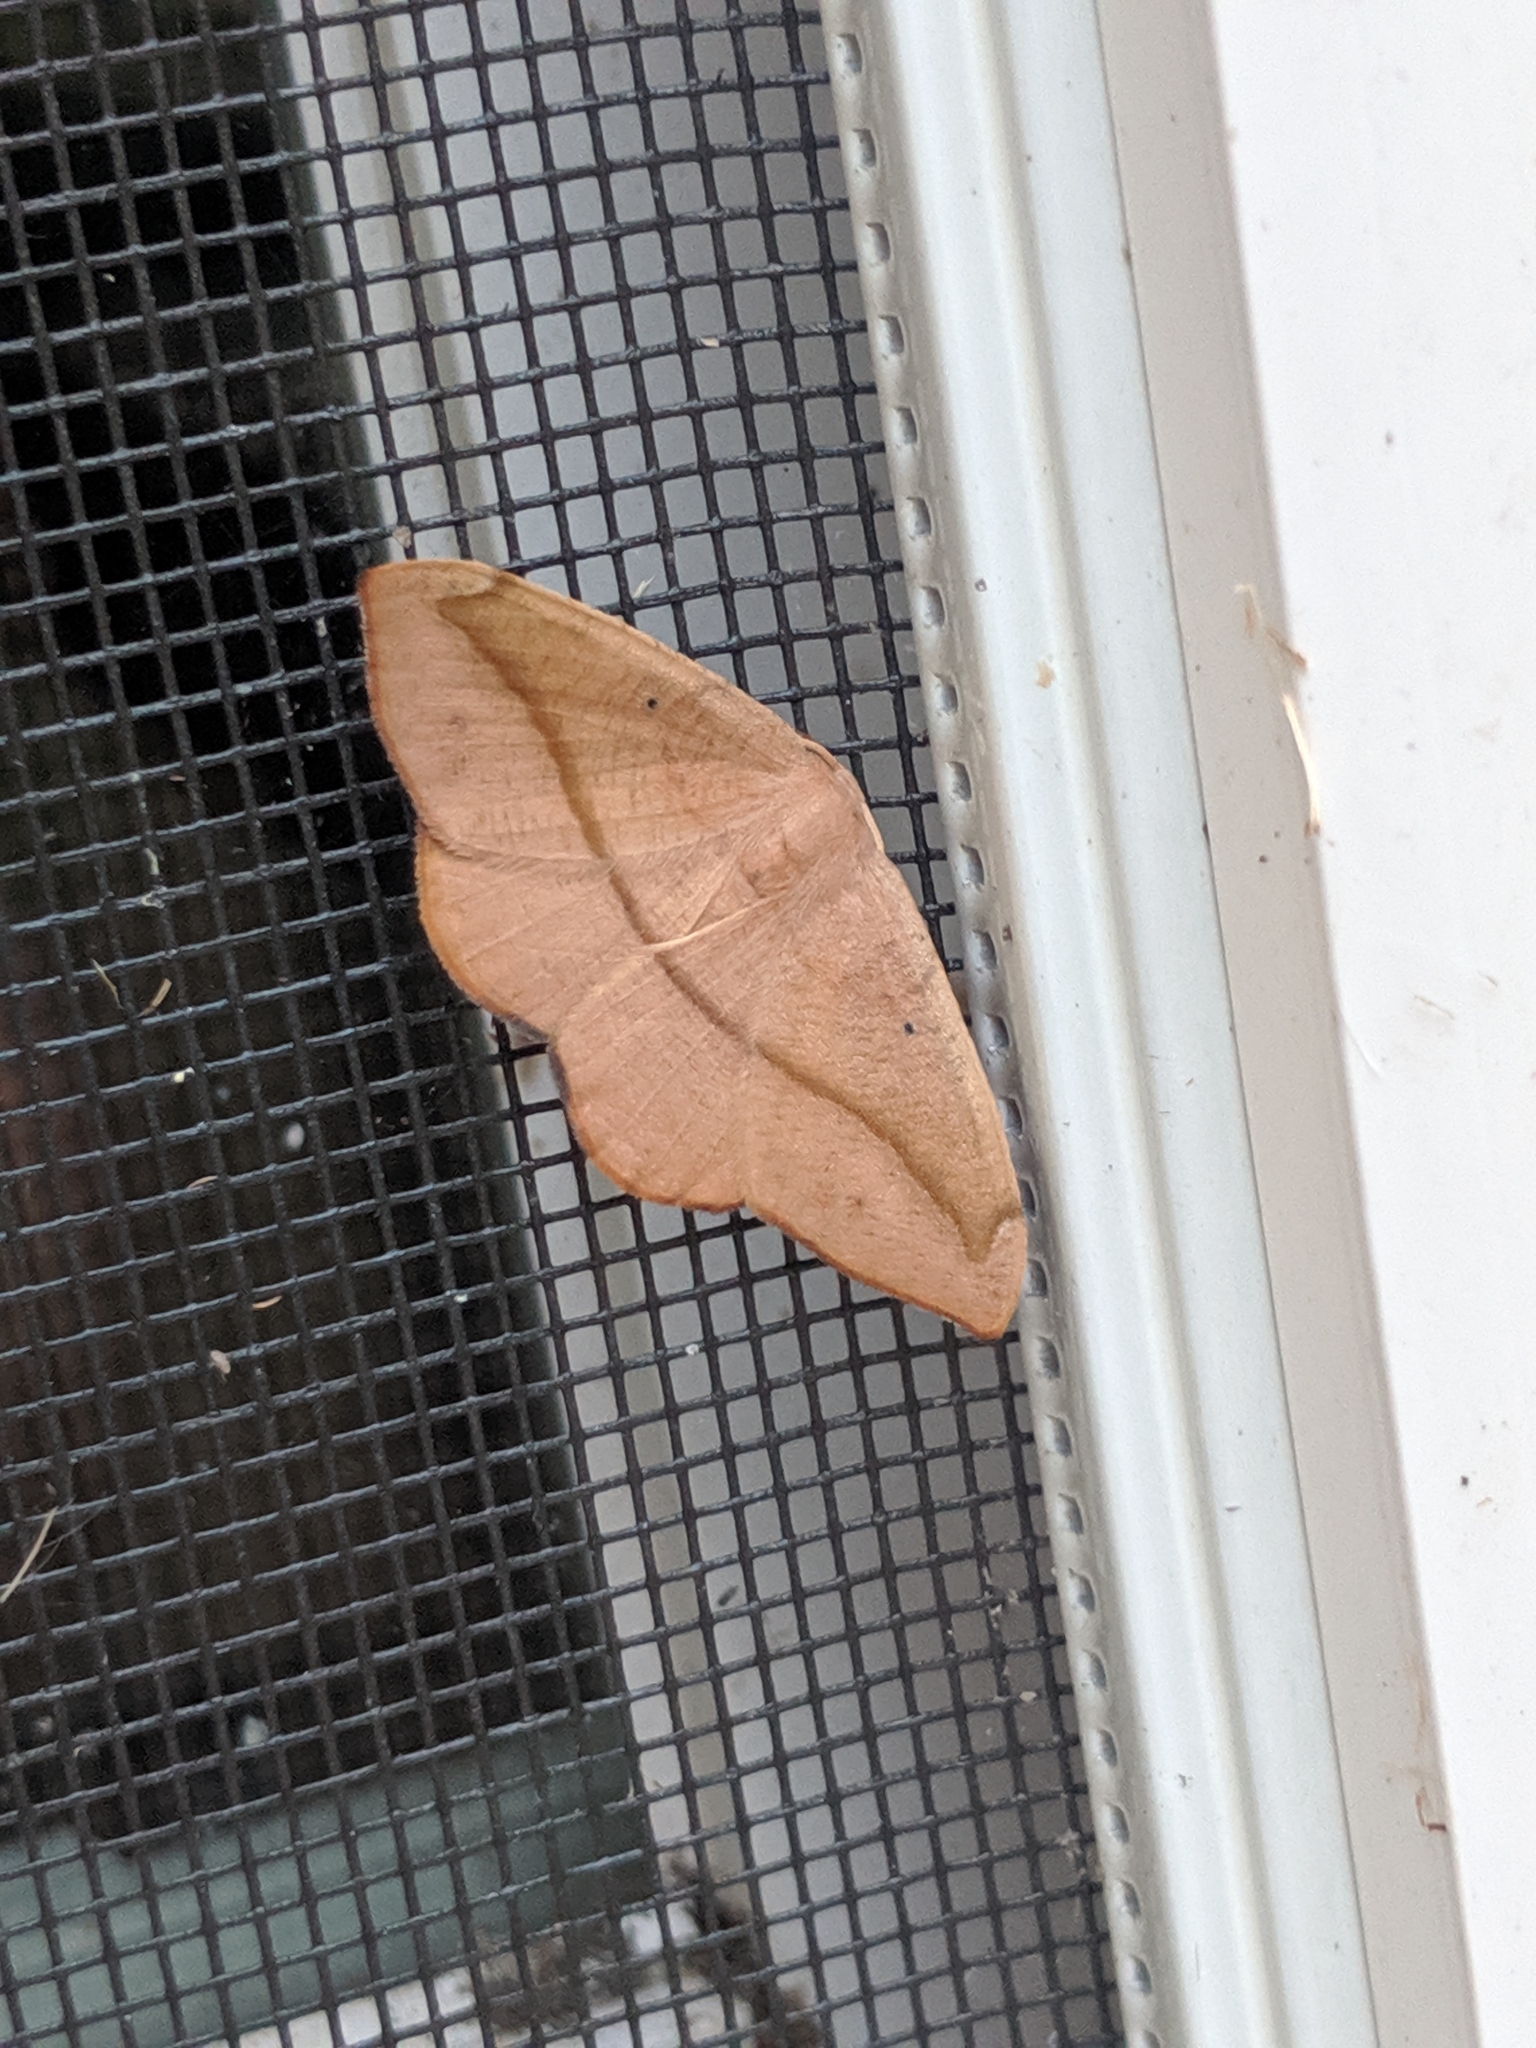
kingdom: Animalia
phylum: Arthropoda
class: Insecta
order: Lepidoptera
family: Geometridae
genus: Patalene
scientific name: Patalene olyzonaria
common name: Juniper geometer moth
